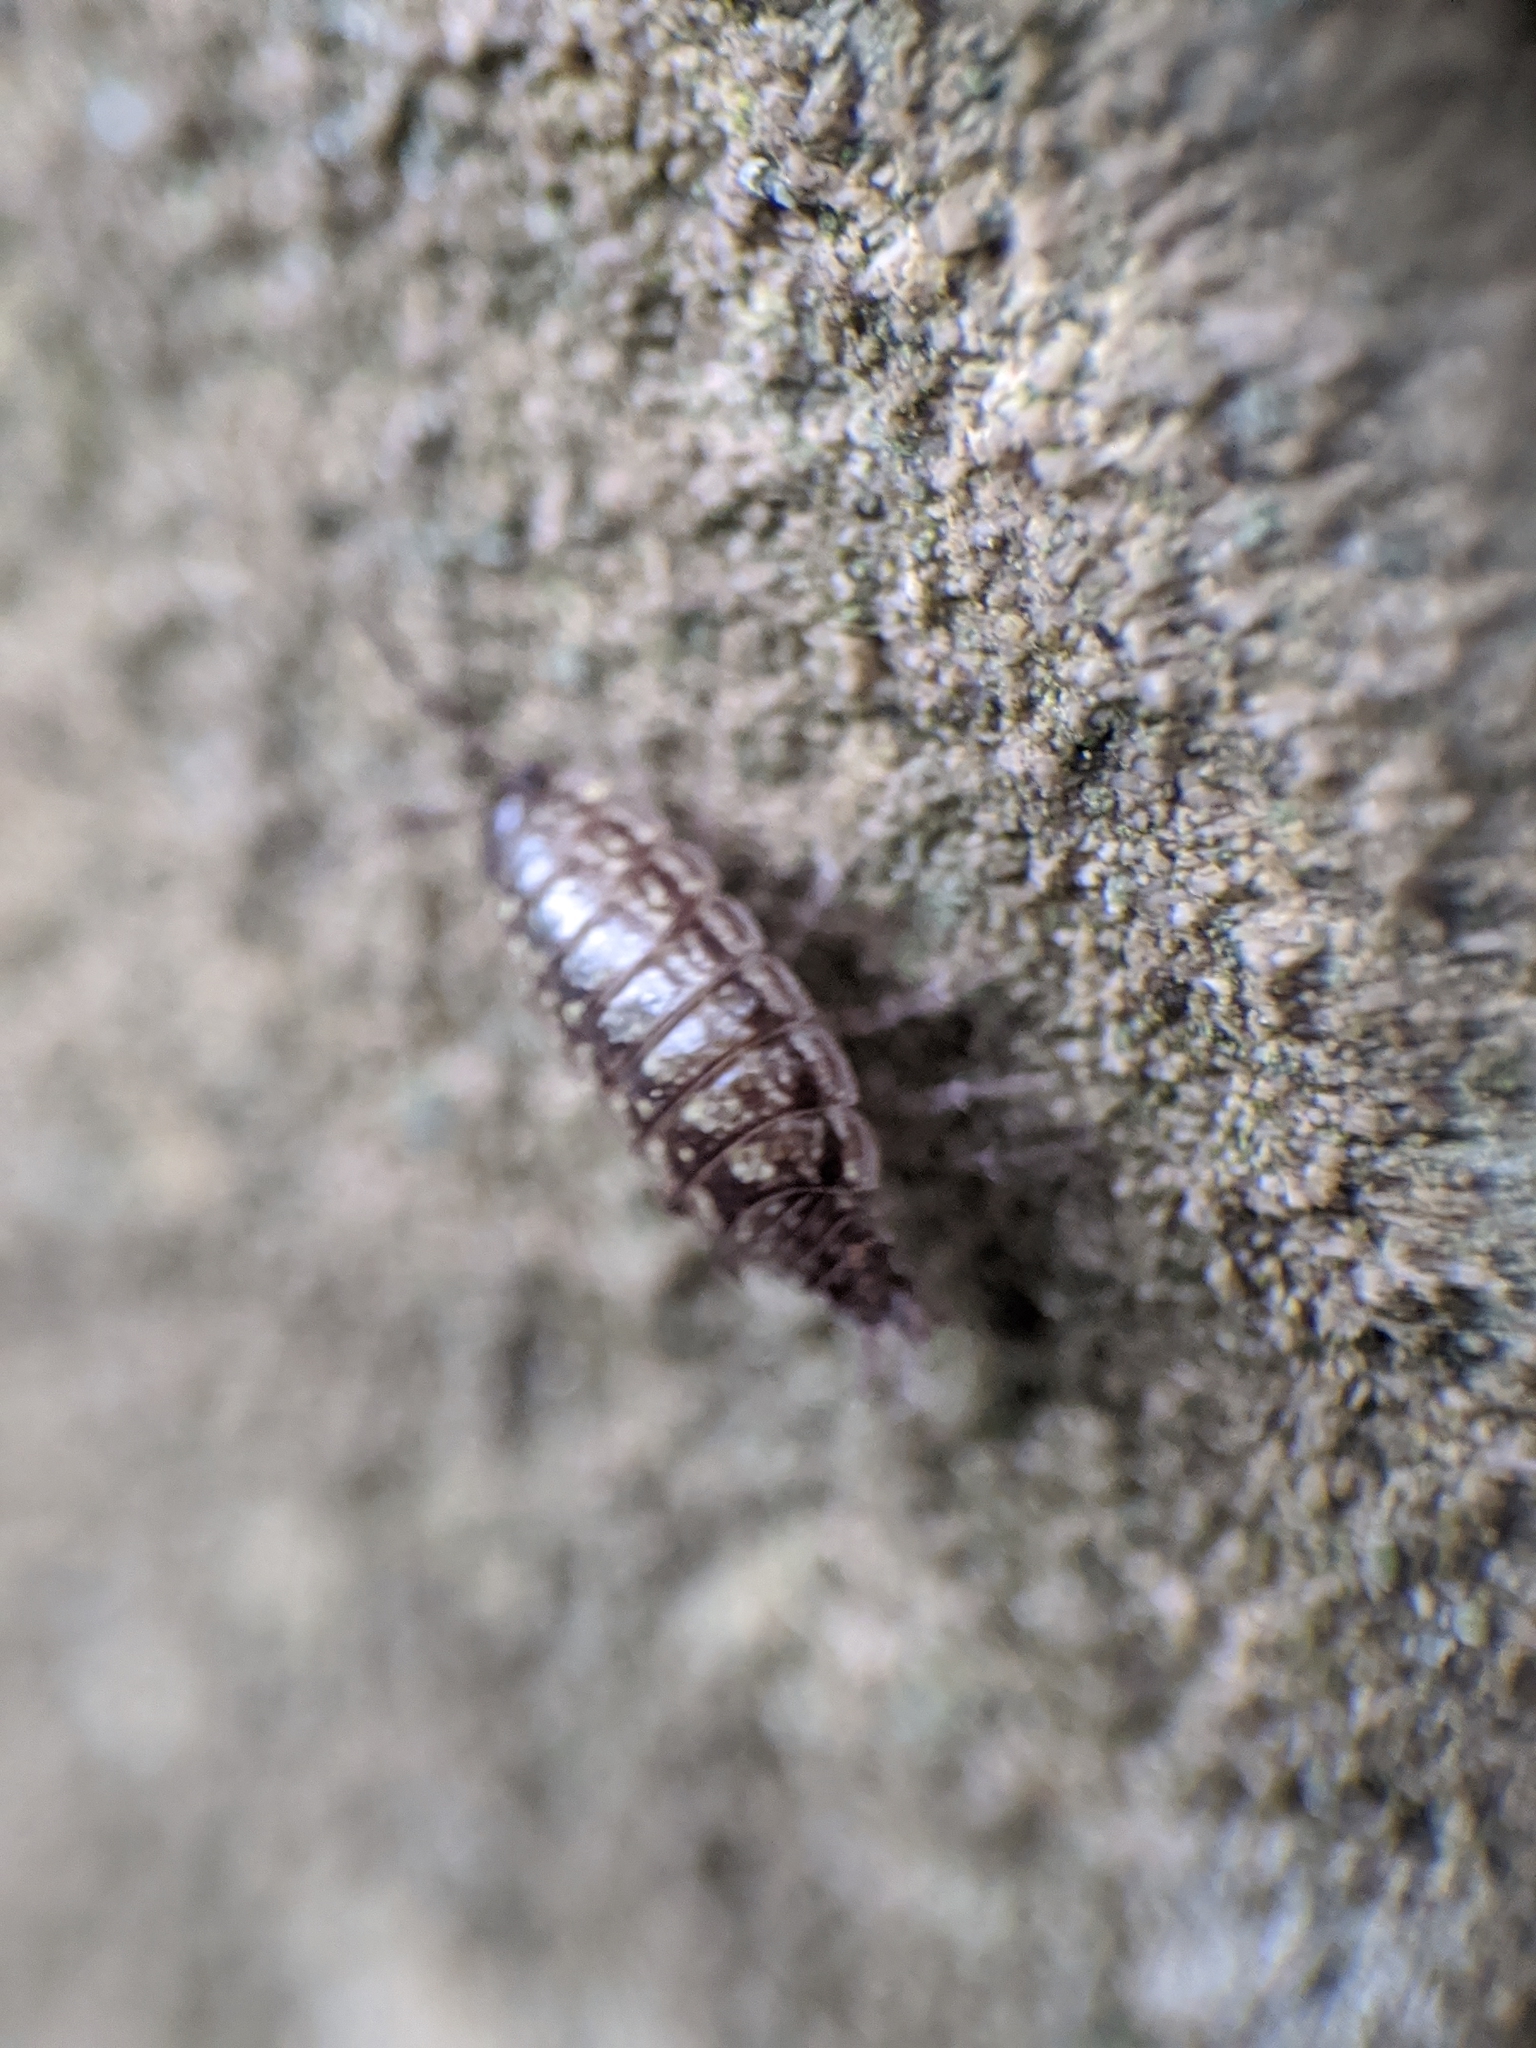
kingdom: Animalia
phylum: Arthropoda
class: Malacostraca
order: Isopoda
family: Philosciidae
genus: Philoscia
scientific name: Philoscia muscorum
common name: Common striped woodlouse
